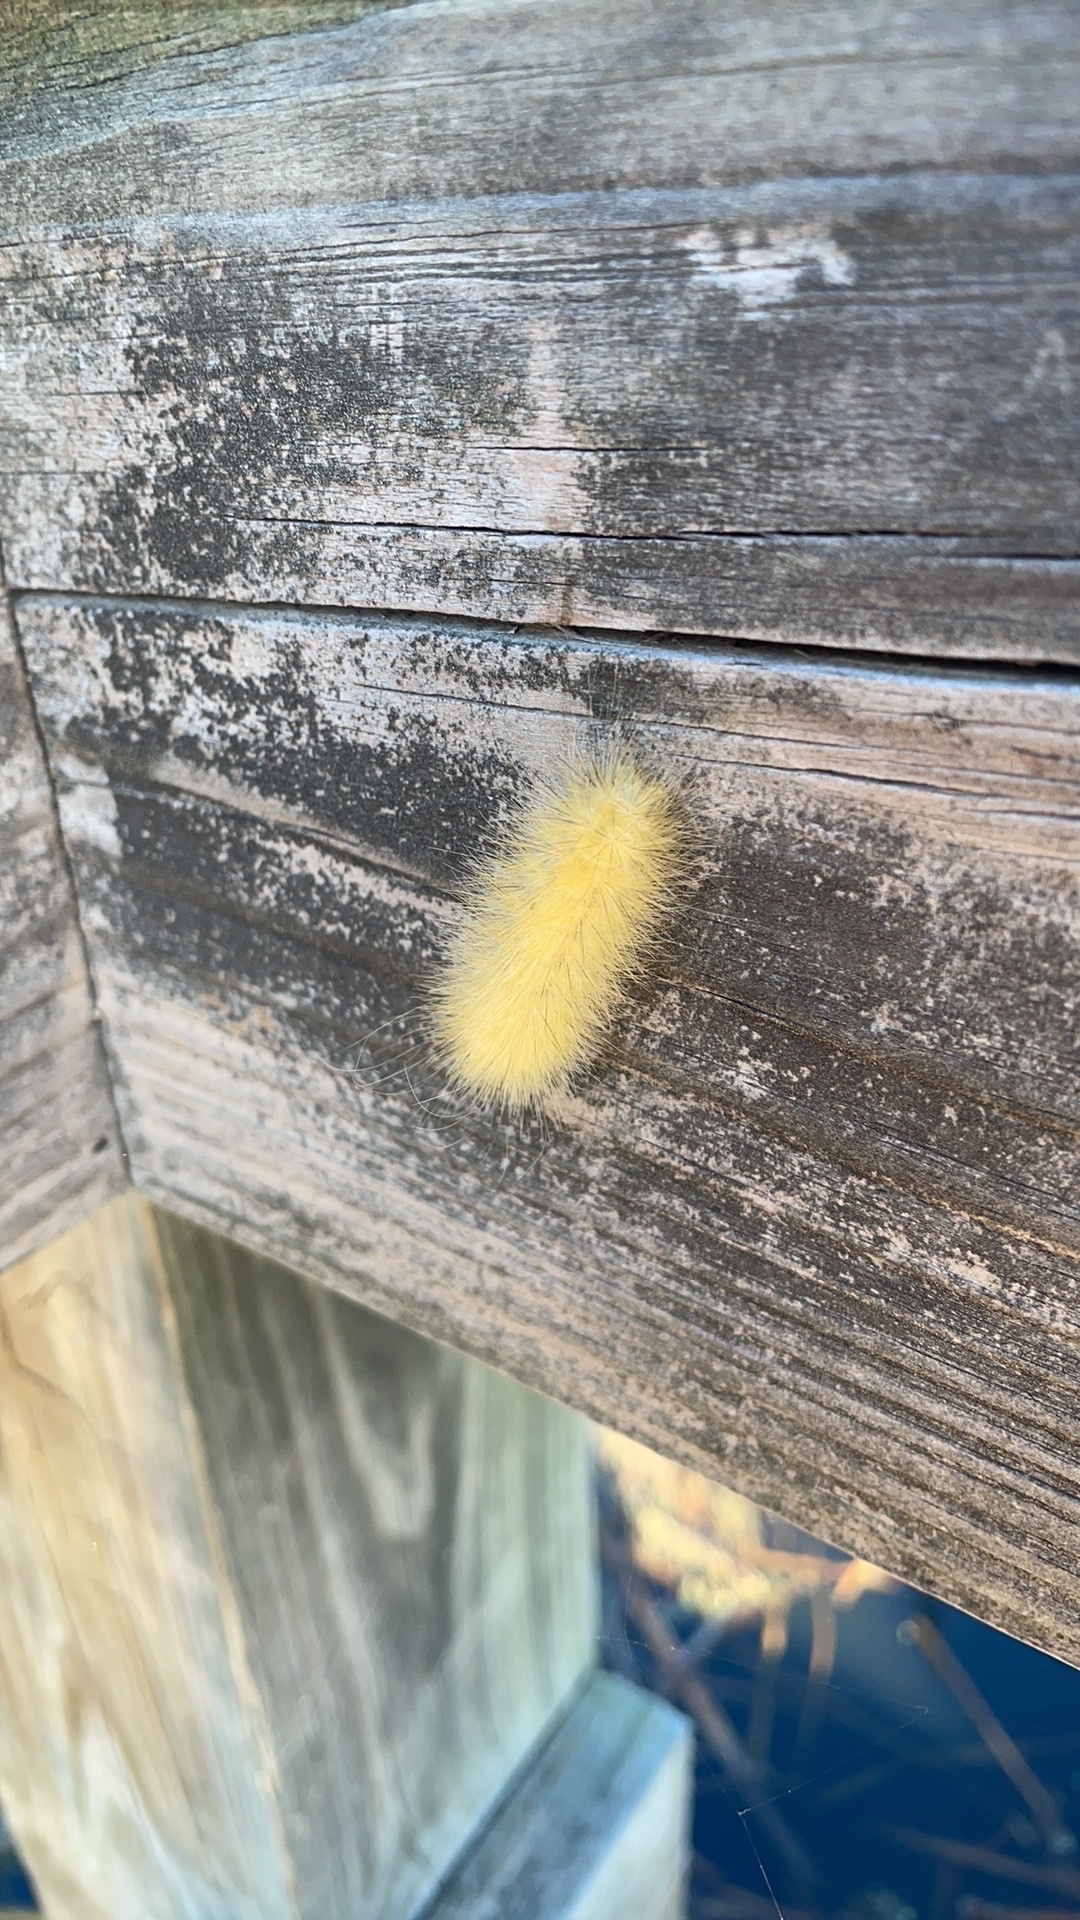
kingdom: Animalia
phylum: Arthropoda
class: Insecta
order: Lepidoptera
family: Erebidae
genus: Spilosoma
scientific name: Spilosoma virginica
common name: Virginia tiger moth
